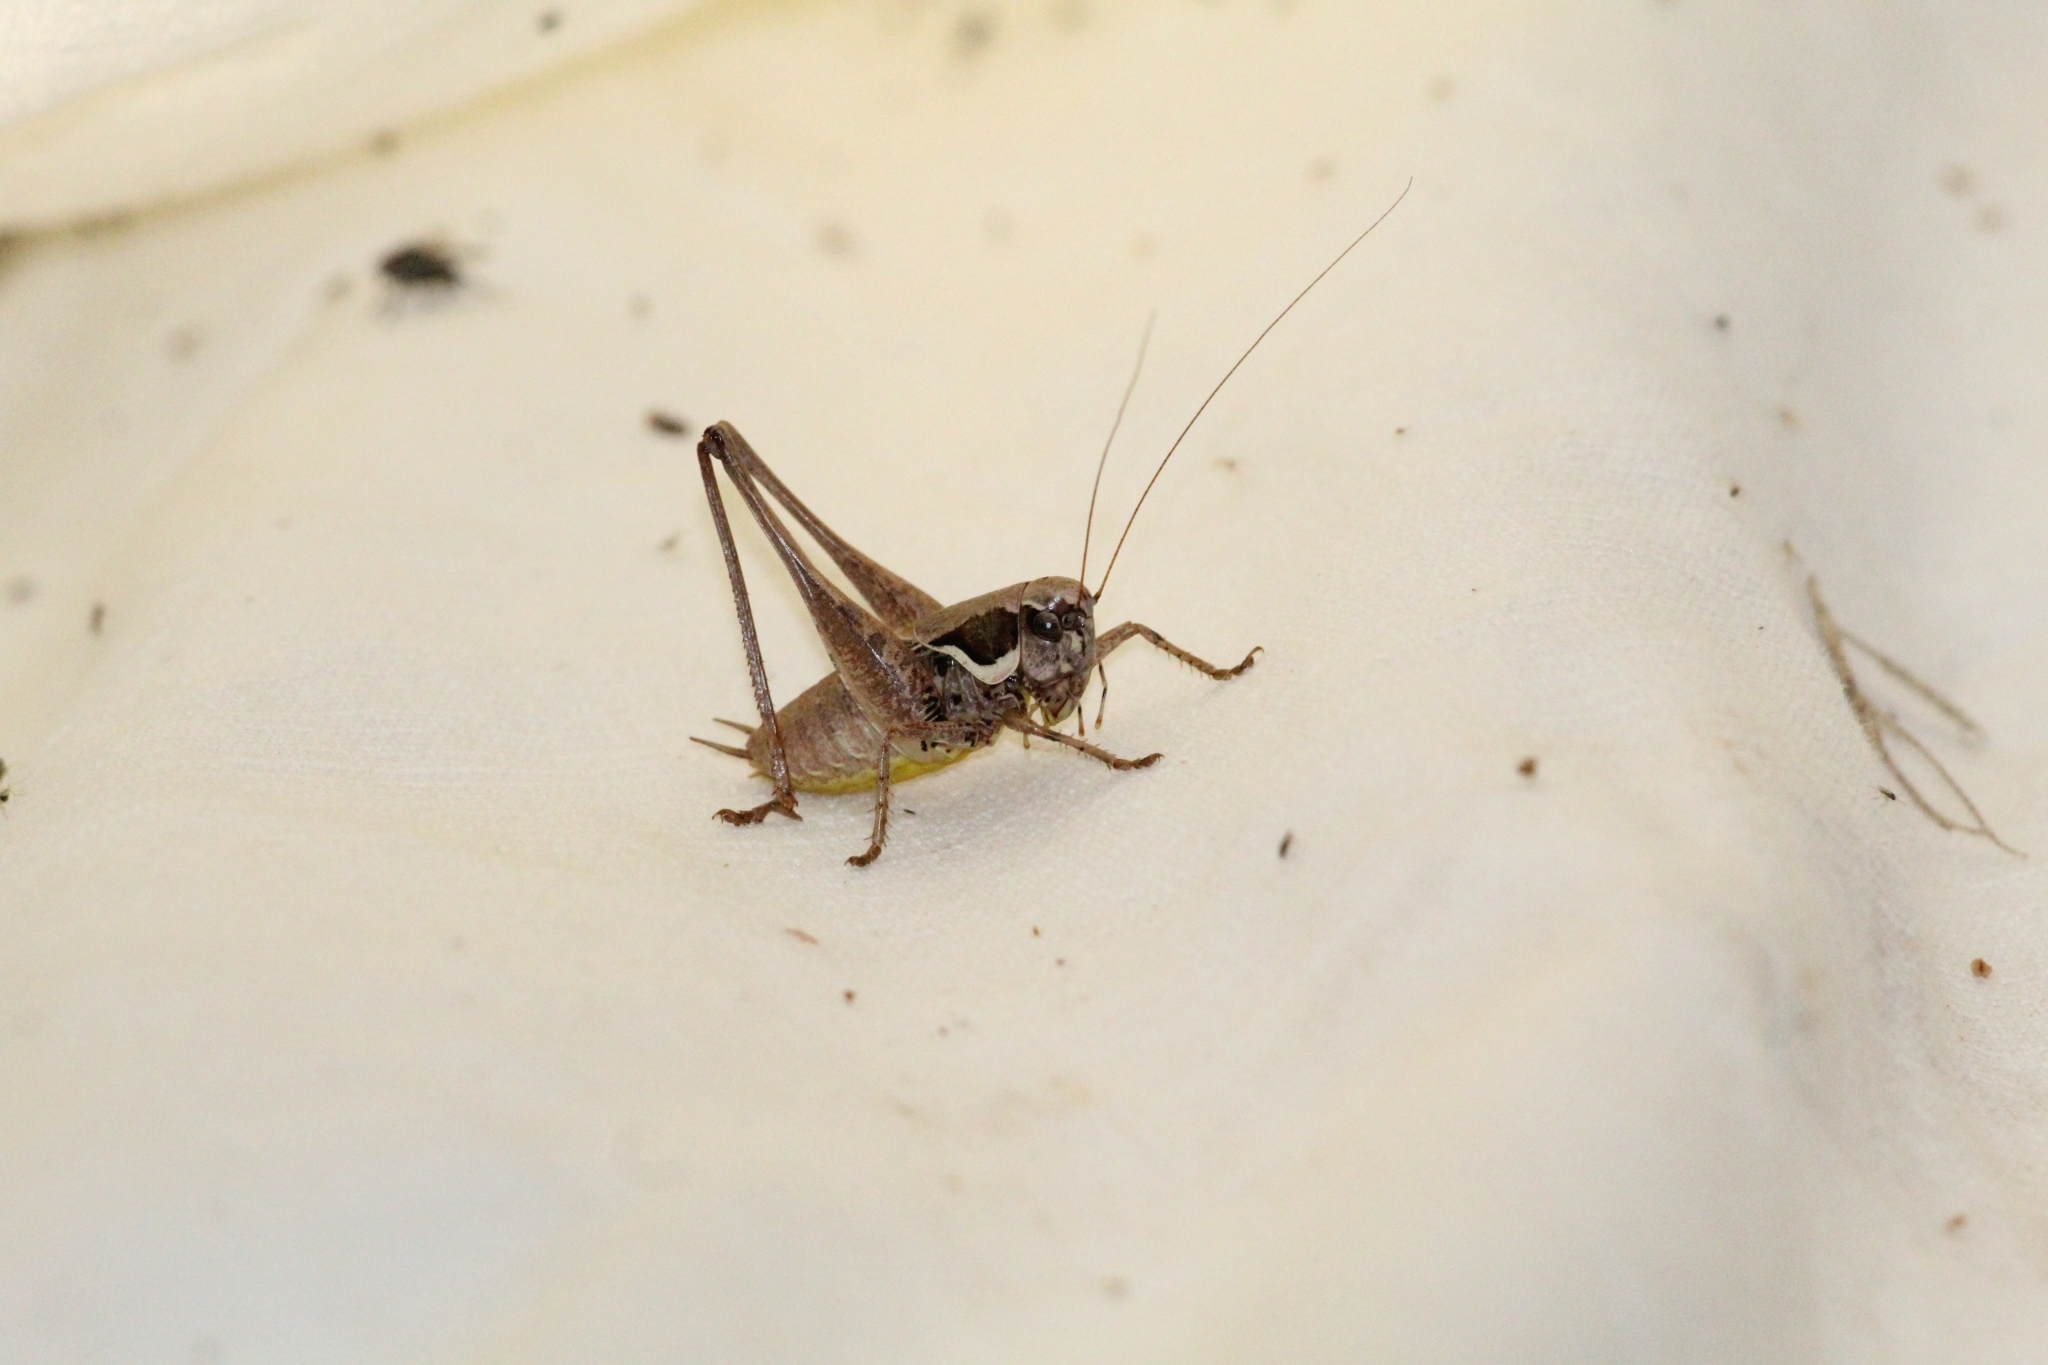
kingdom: Animalia
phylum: Arthropoda
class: Insecta
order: Orthoptera
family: Tettigoniidae
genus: Pholidoptera
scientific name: Pholidoptera femorata
